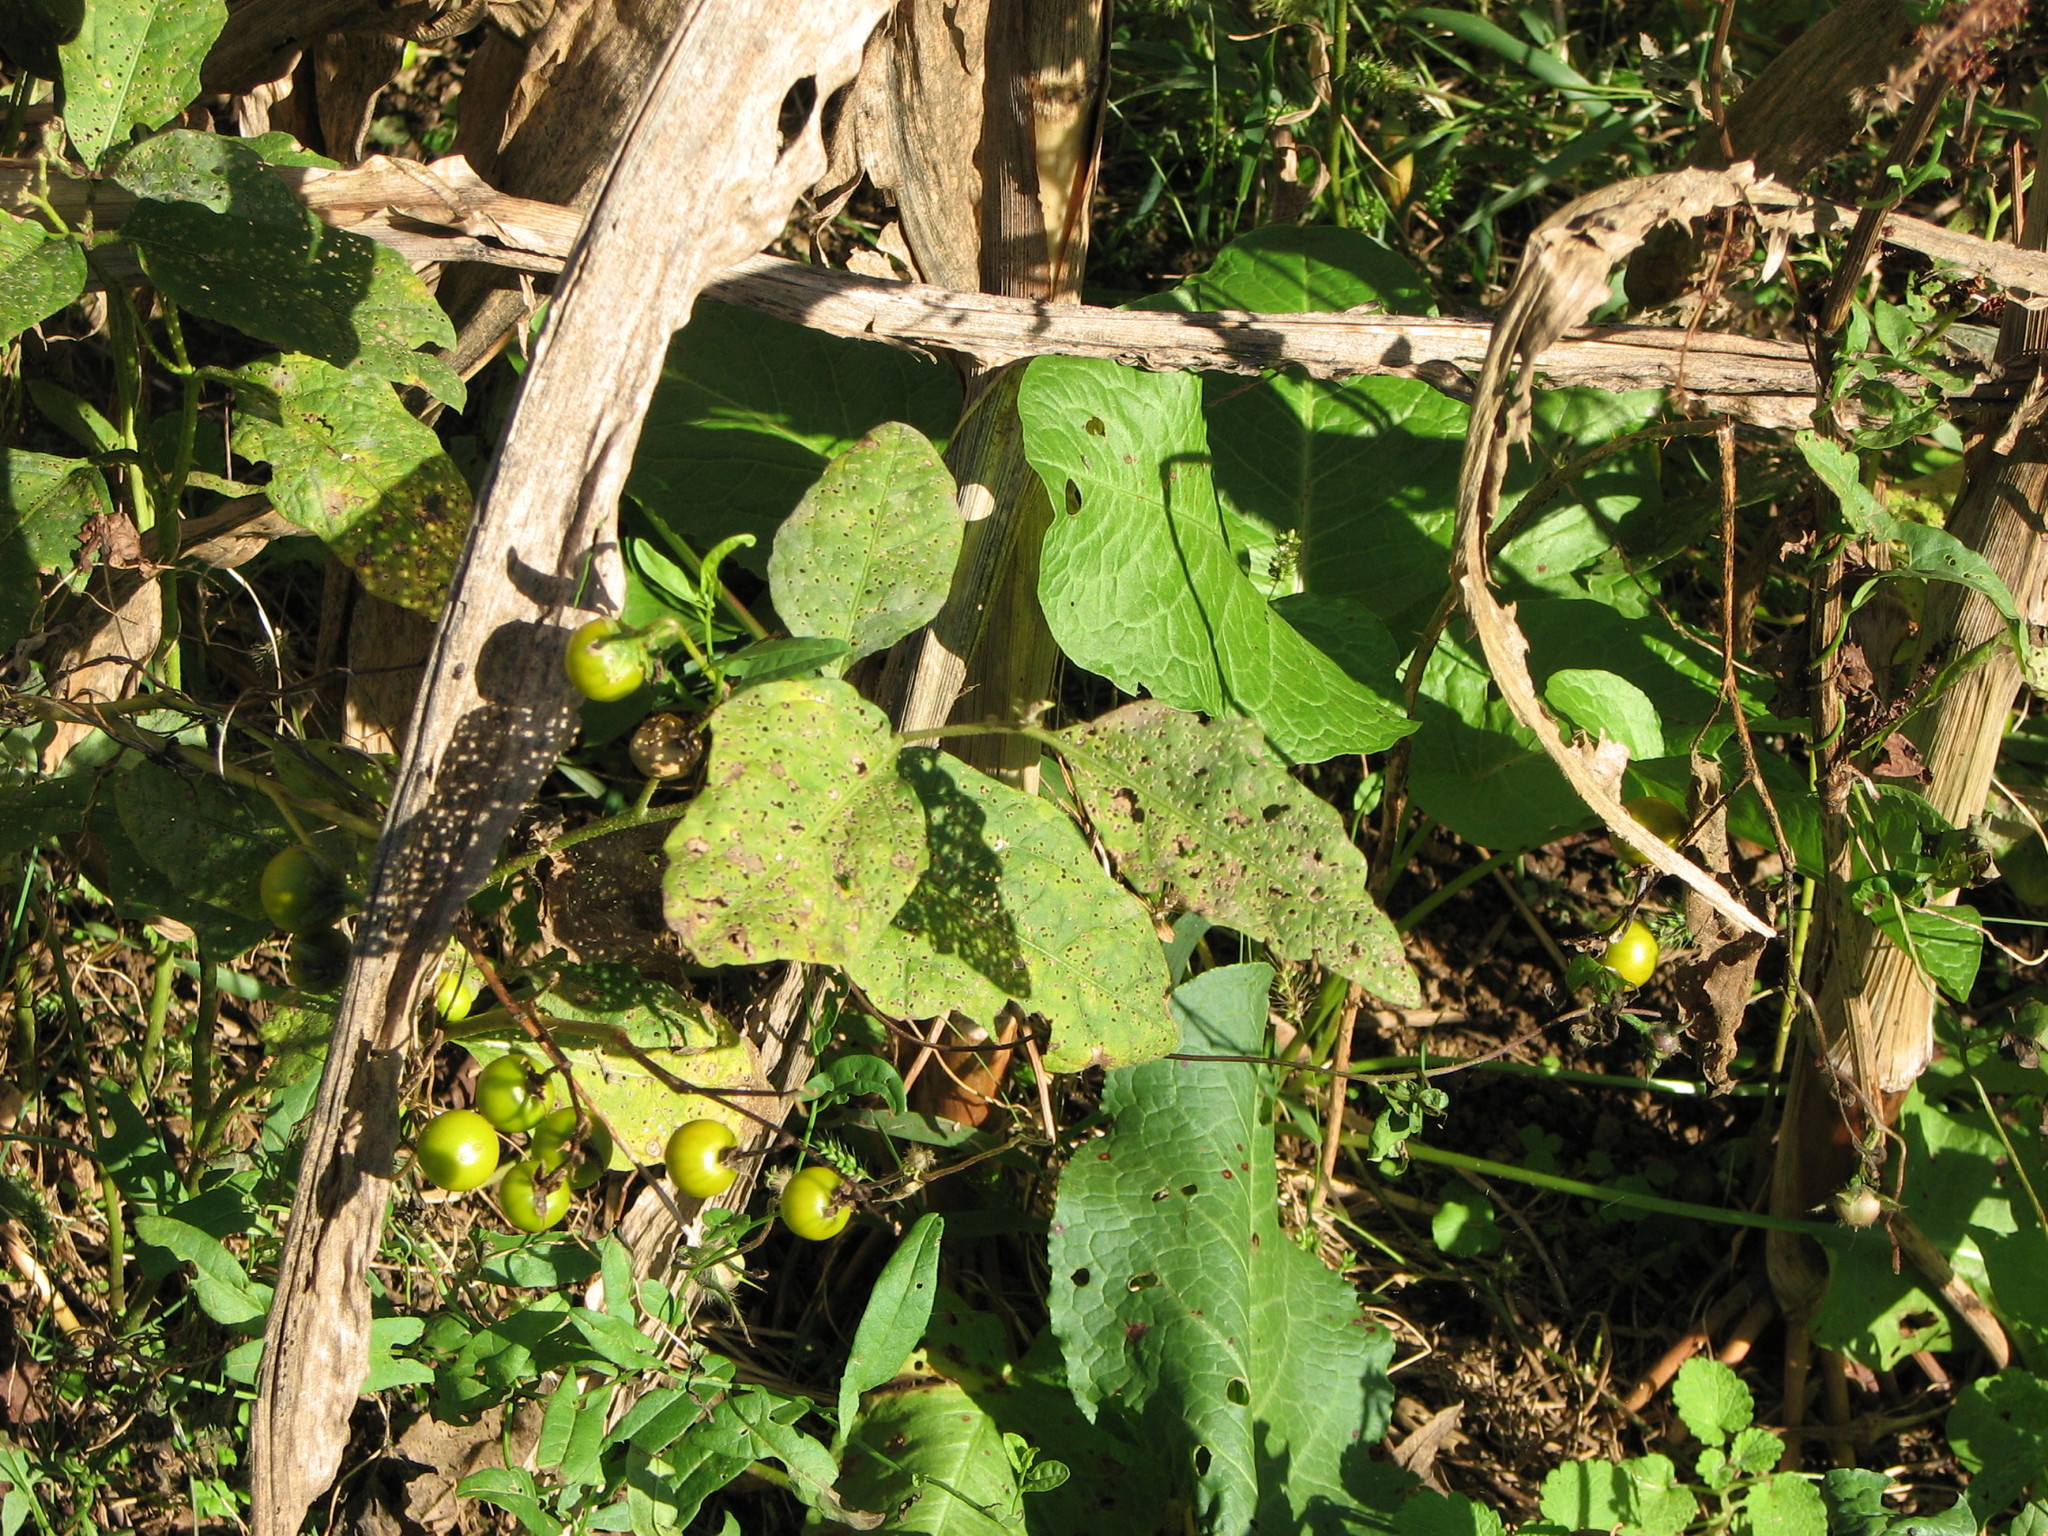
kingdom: Plantae
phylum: Tracheophyta
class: Magnoliopsida
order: Solanales
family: Solanaceae
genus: Solanum
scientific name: Solanum carolinense
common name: Horse-nettle
